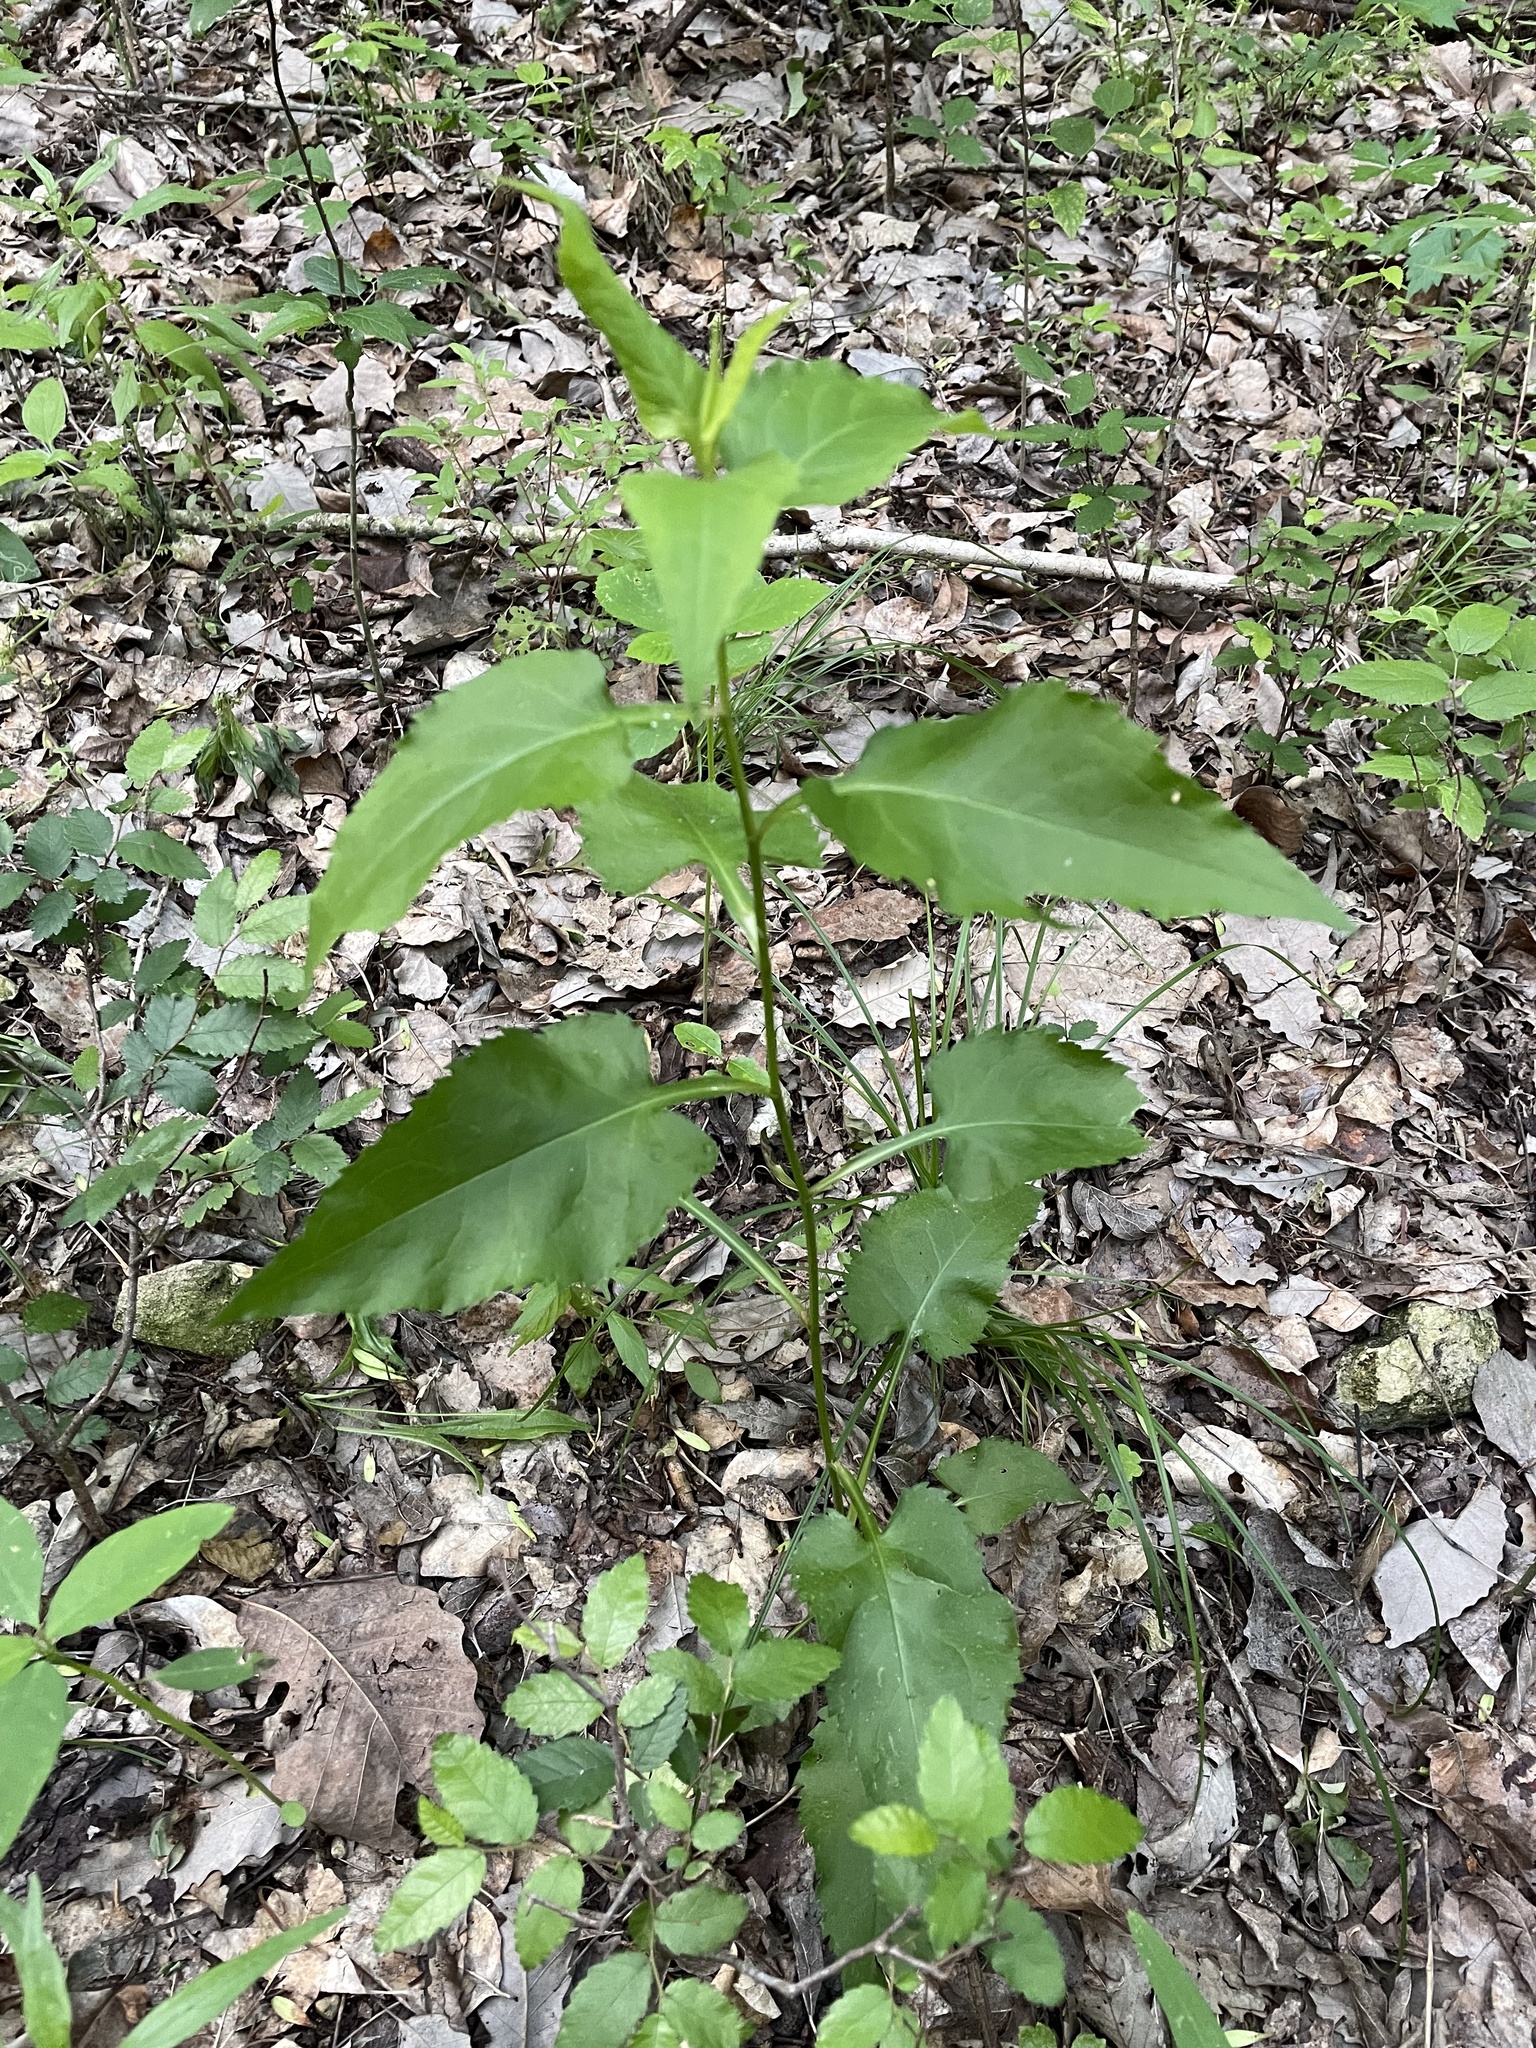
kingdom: Plantae
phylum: Tracheophyta
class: Magnoliopsida
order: Asterales
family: Asteraceae
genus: Symphyotrichum
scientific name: Symphyotrichum drummondii
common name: Drummond's aster
